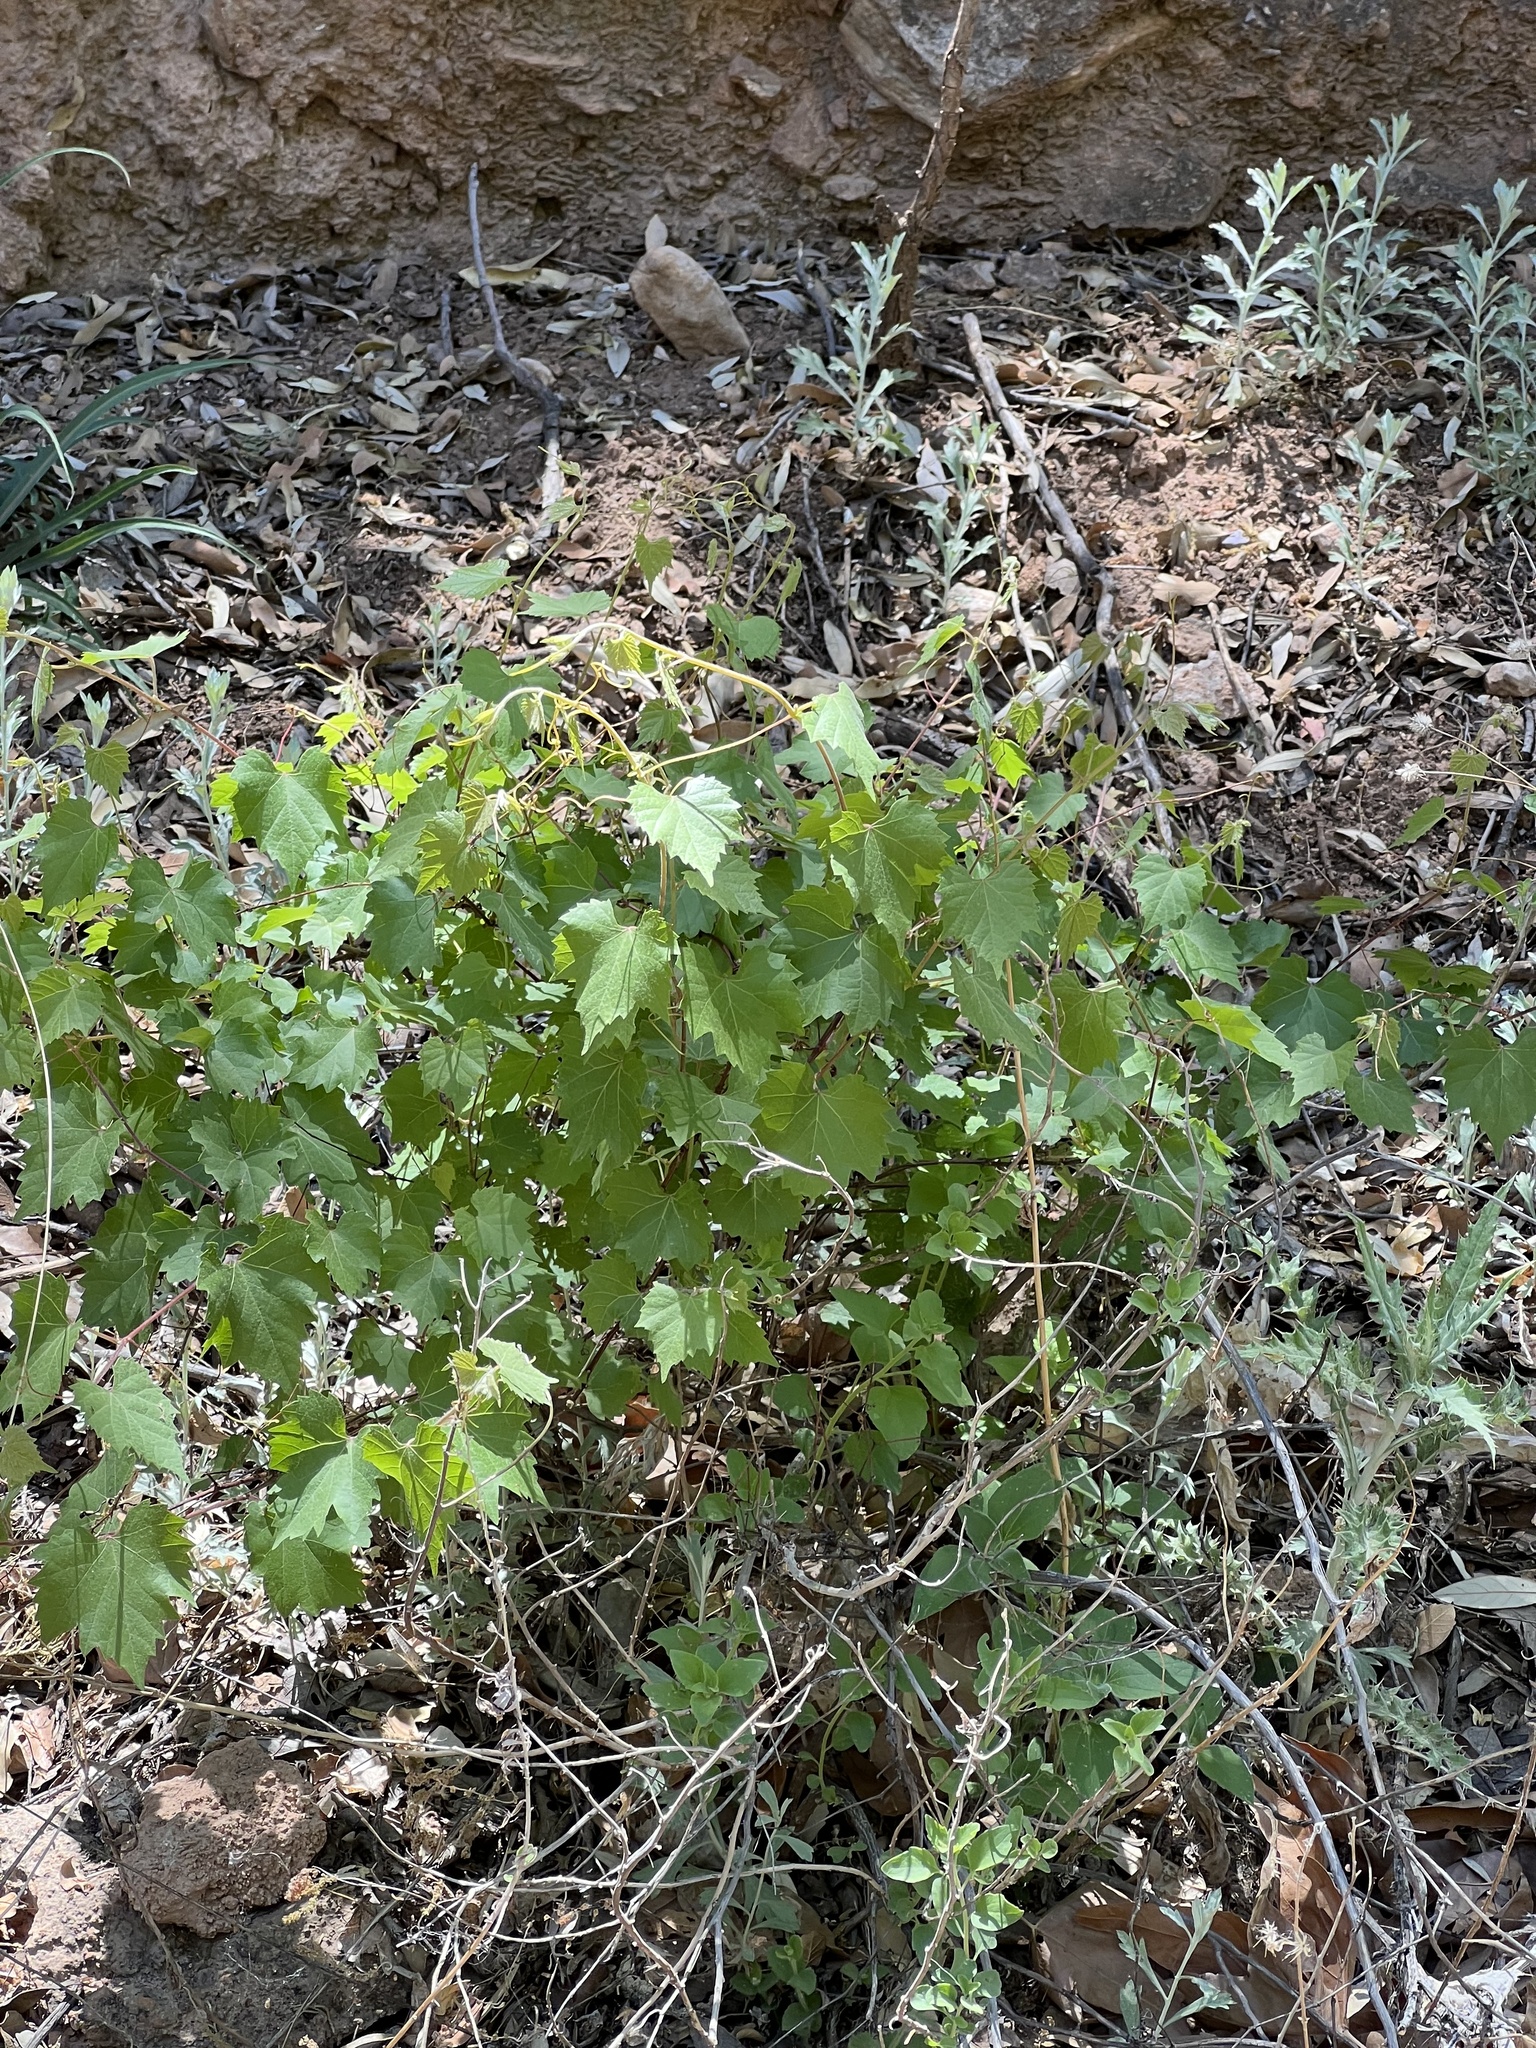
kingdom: Plantae
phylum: Tracheophyta
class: Magnoliopsida
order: Vitales
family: Vitaceae
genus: Vitis
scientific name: Vitis arizonica
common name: Canyon grape
